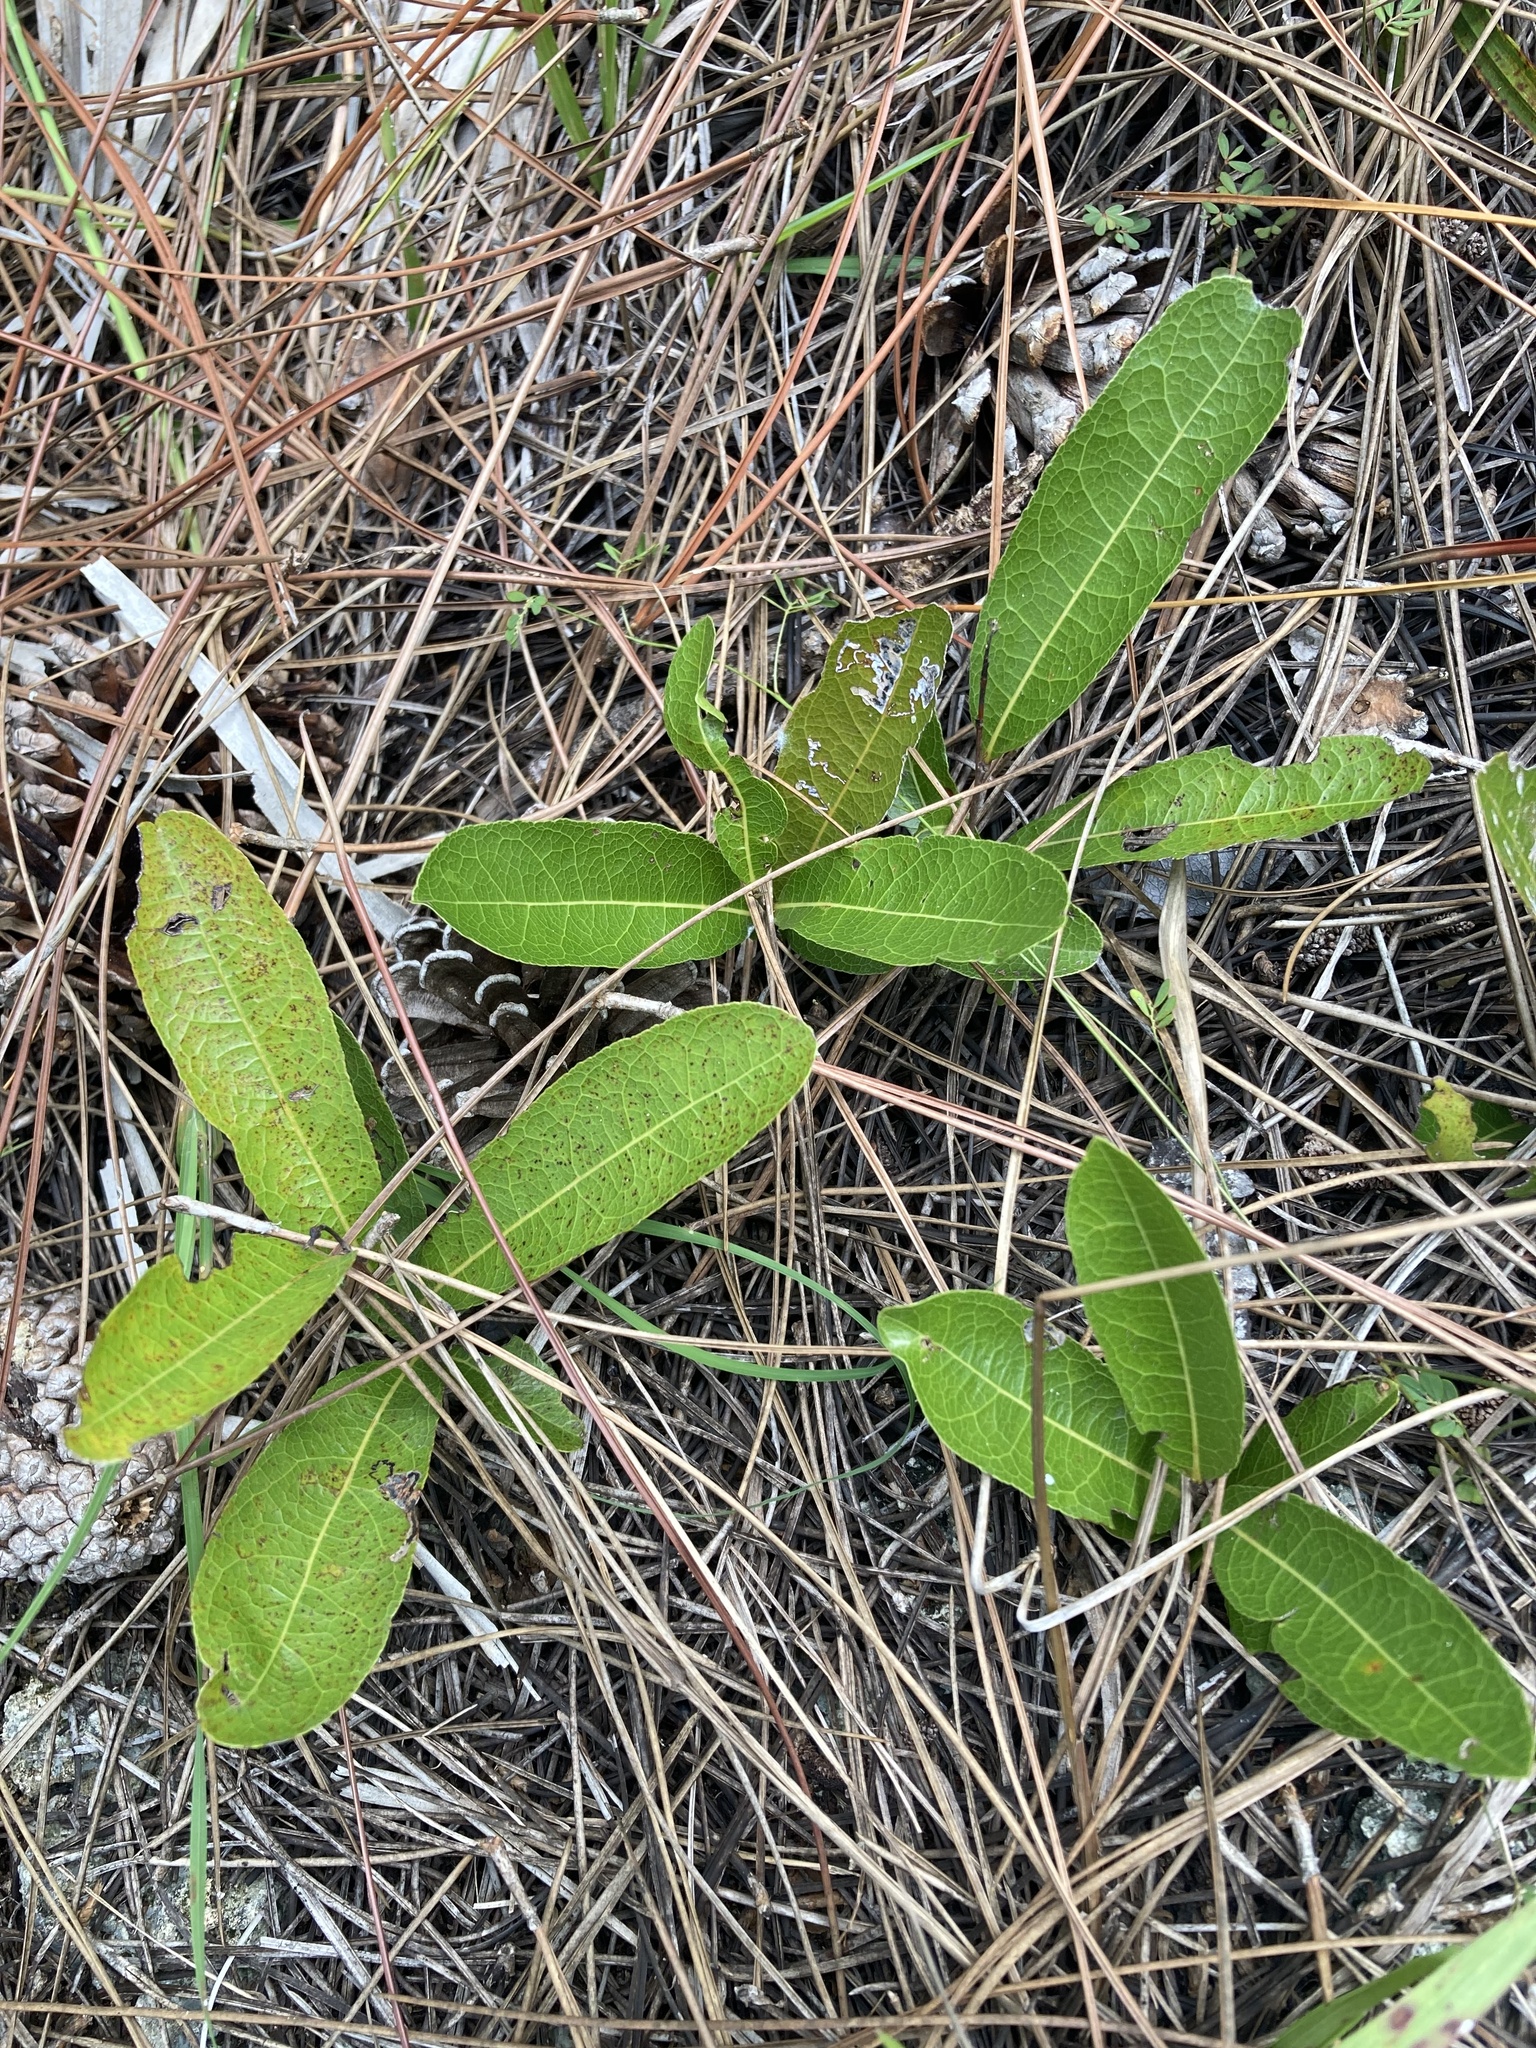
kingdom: Plantae
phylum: Tracheophyta
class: Magnoliopsida
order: Malpighiales
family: Chrysobalanaceae
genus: Geobalanus
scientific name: Geobalanus oblongifolius
